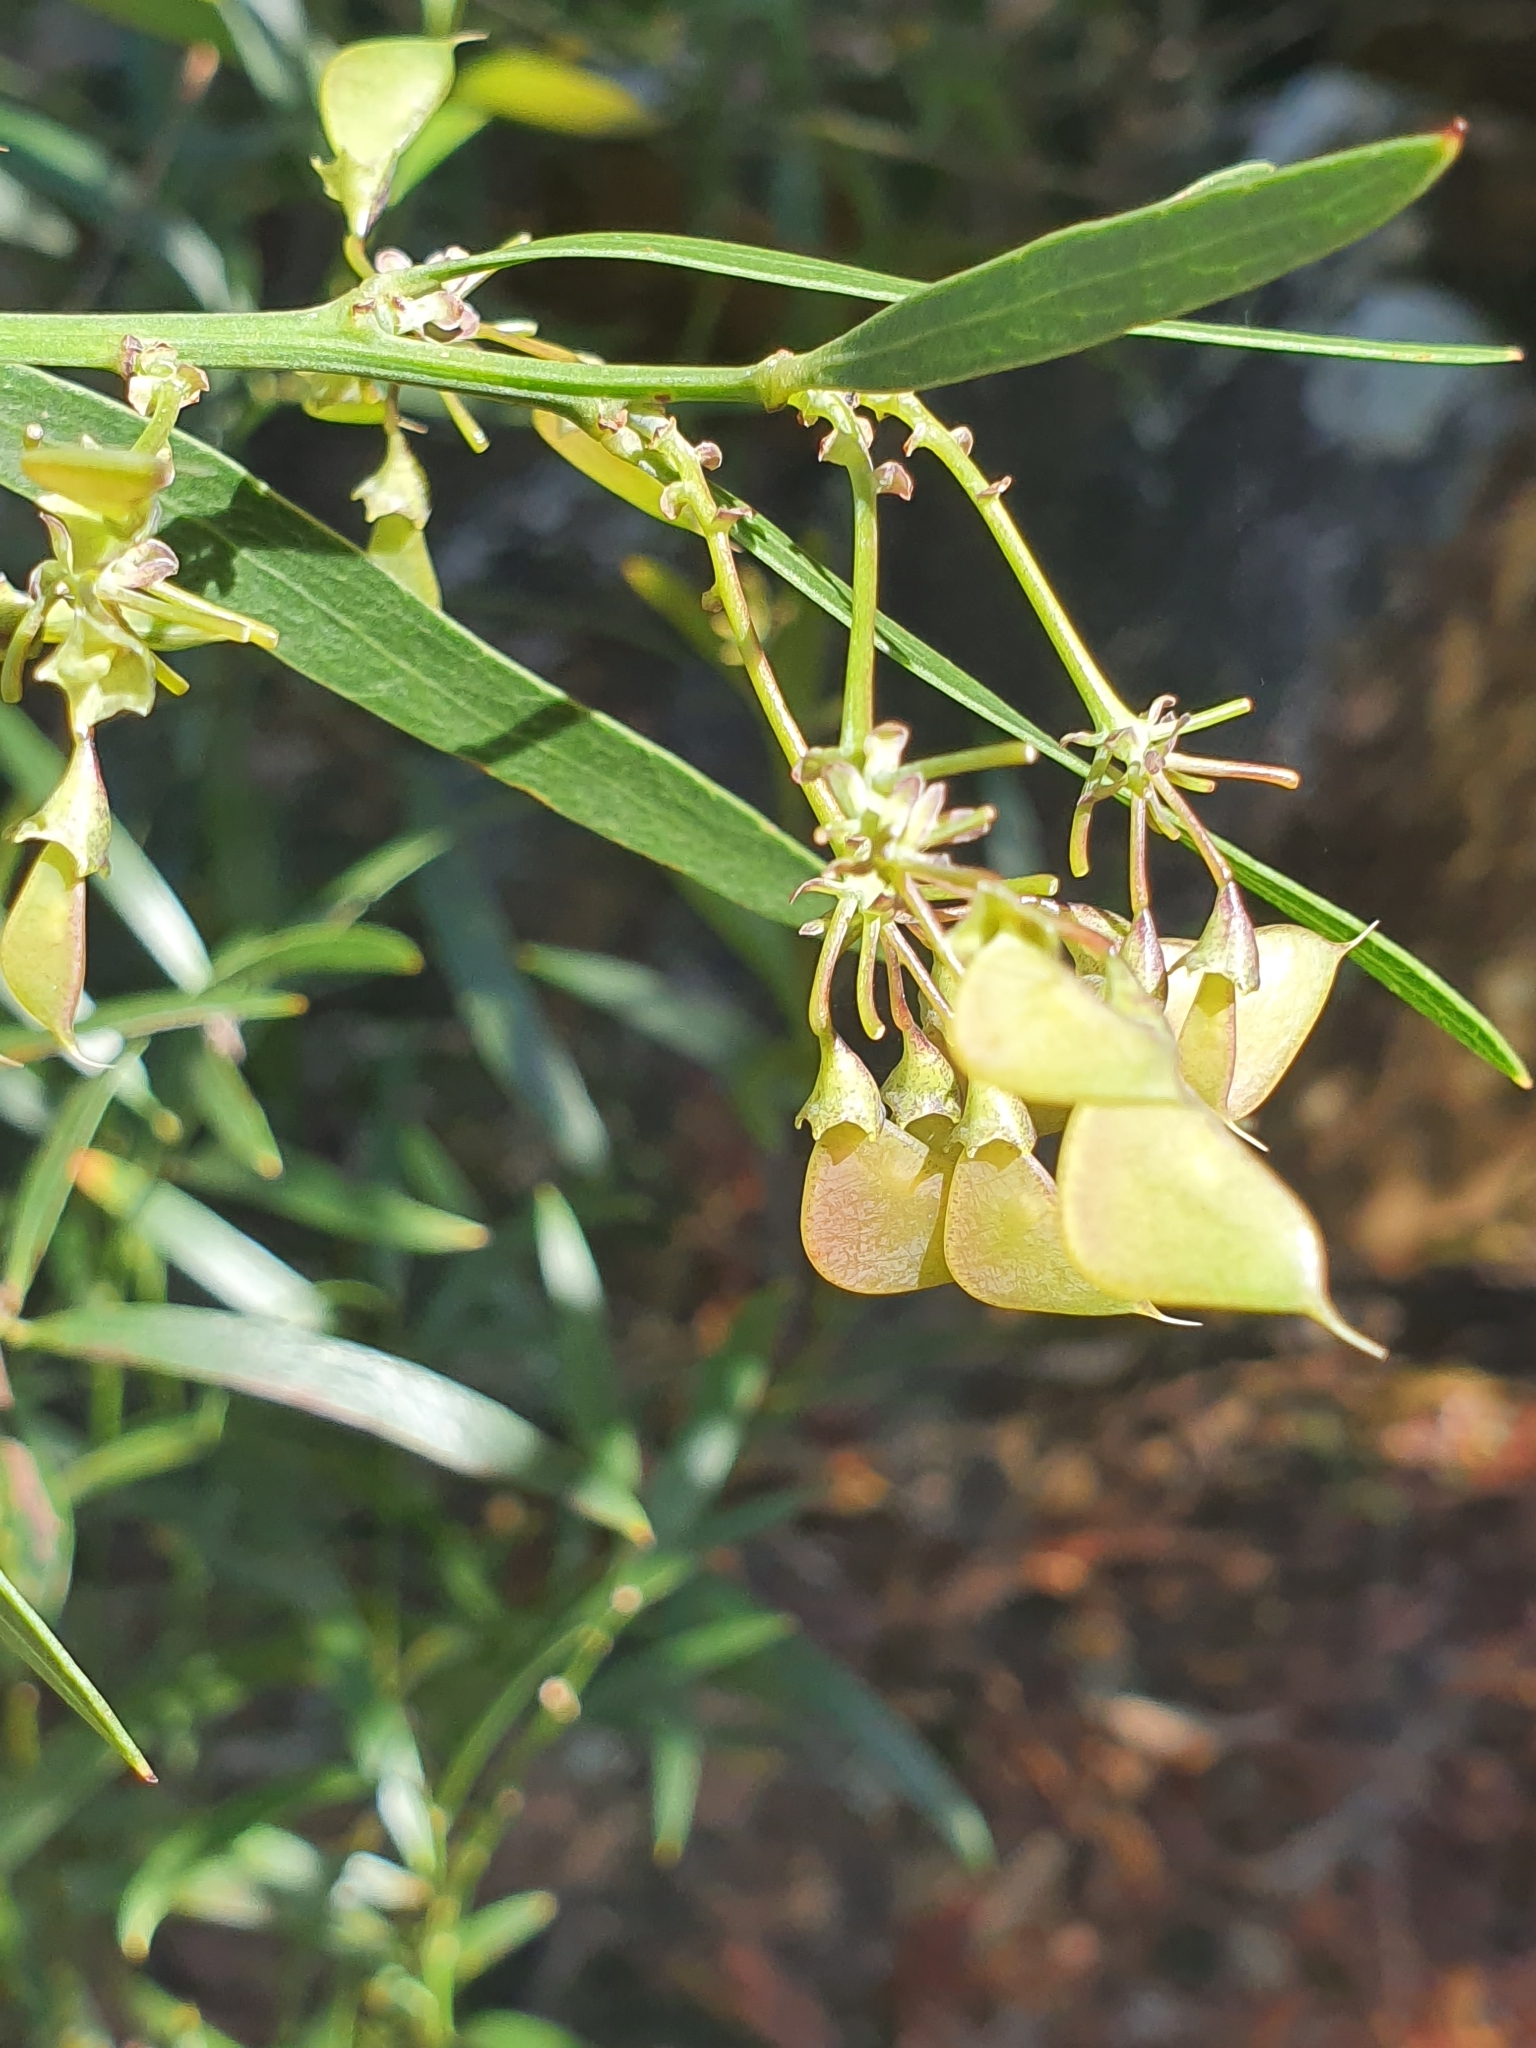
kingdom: Plantae
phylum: Tracheophyta
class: Magnoliopsida
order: Fabales
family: Fabaceae
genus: Daviesia
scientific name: Daviesia corymbosa
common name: Narrow-leaf bitter-pea
